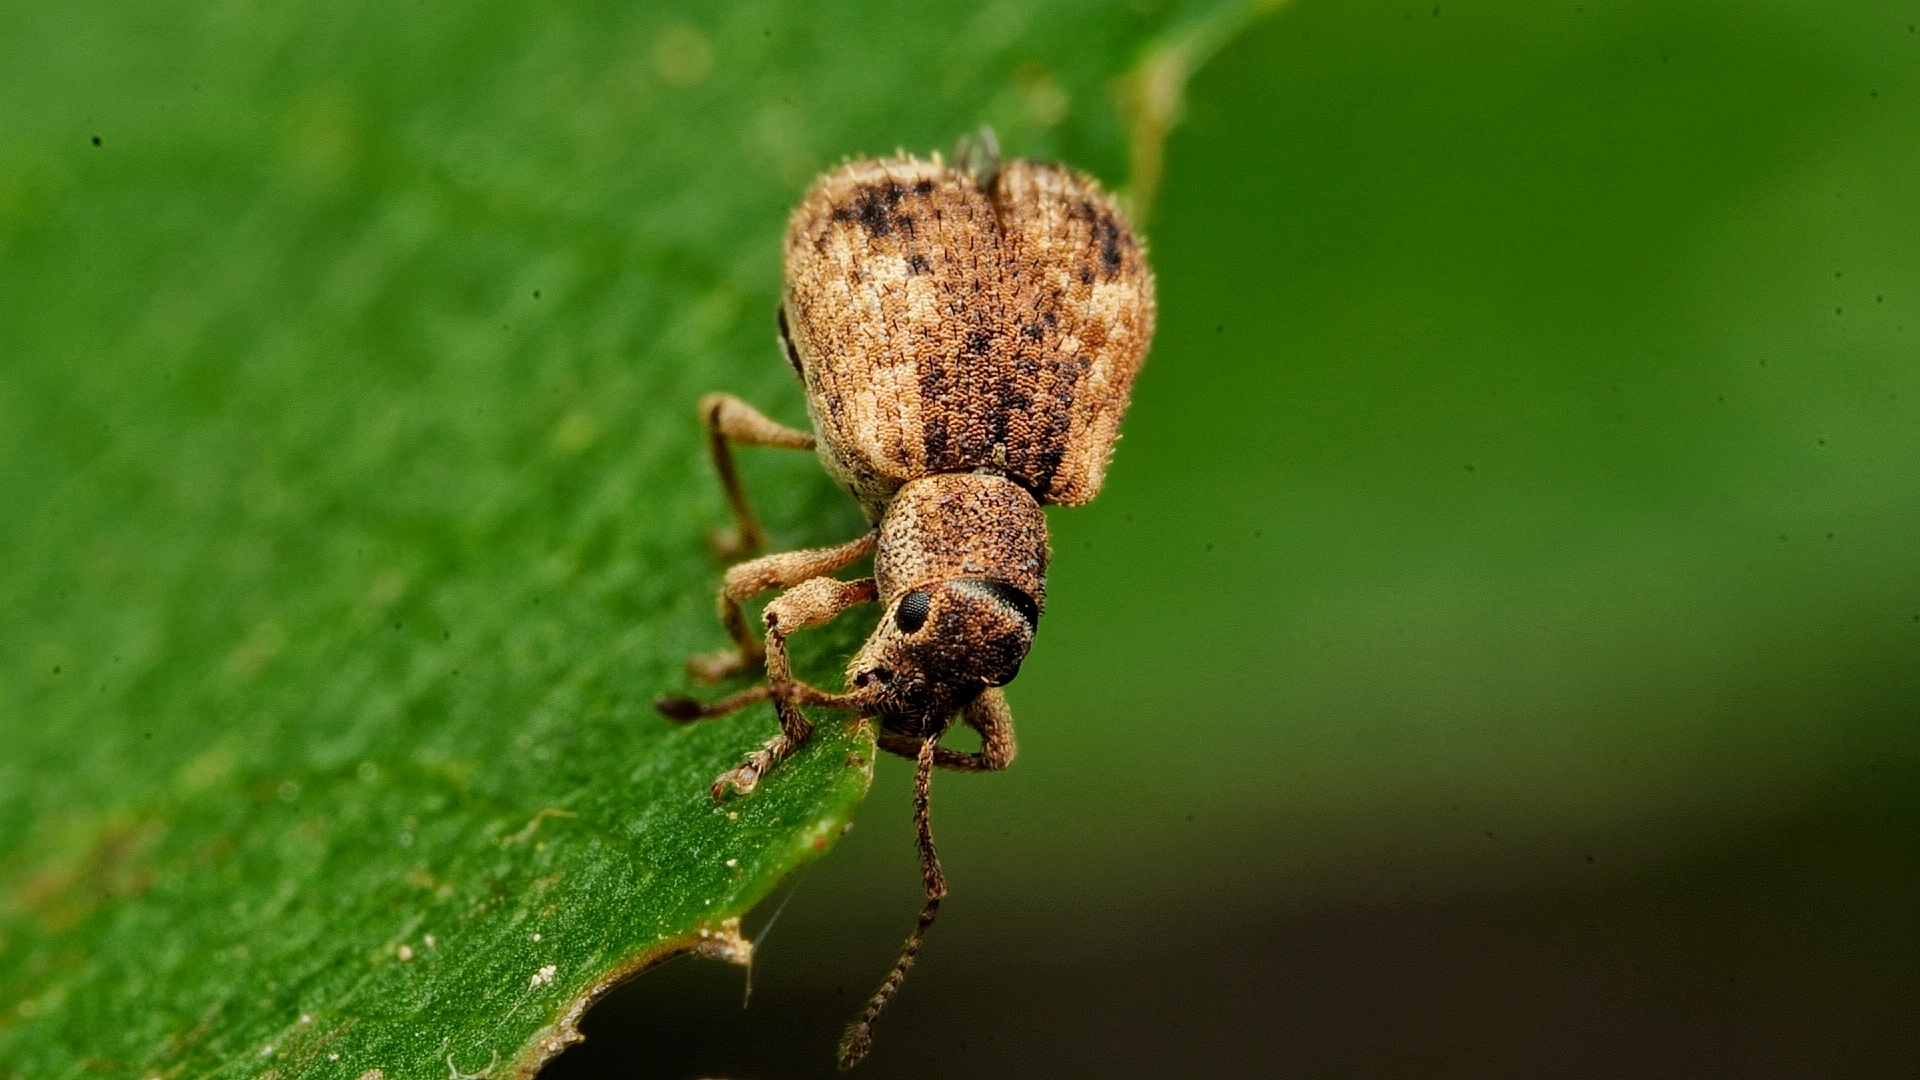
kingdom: Animalia
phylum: Arthropoda
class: Insecta
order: Coleoptera
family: Curculionidae
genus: Pseudoedophrys
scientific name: Pseudoedophrys hilleri
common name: Weevil
